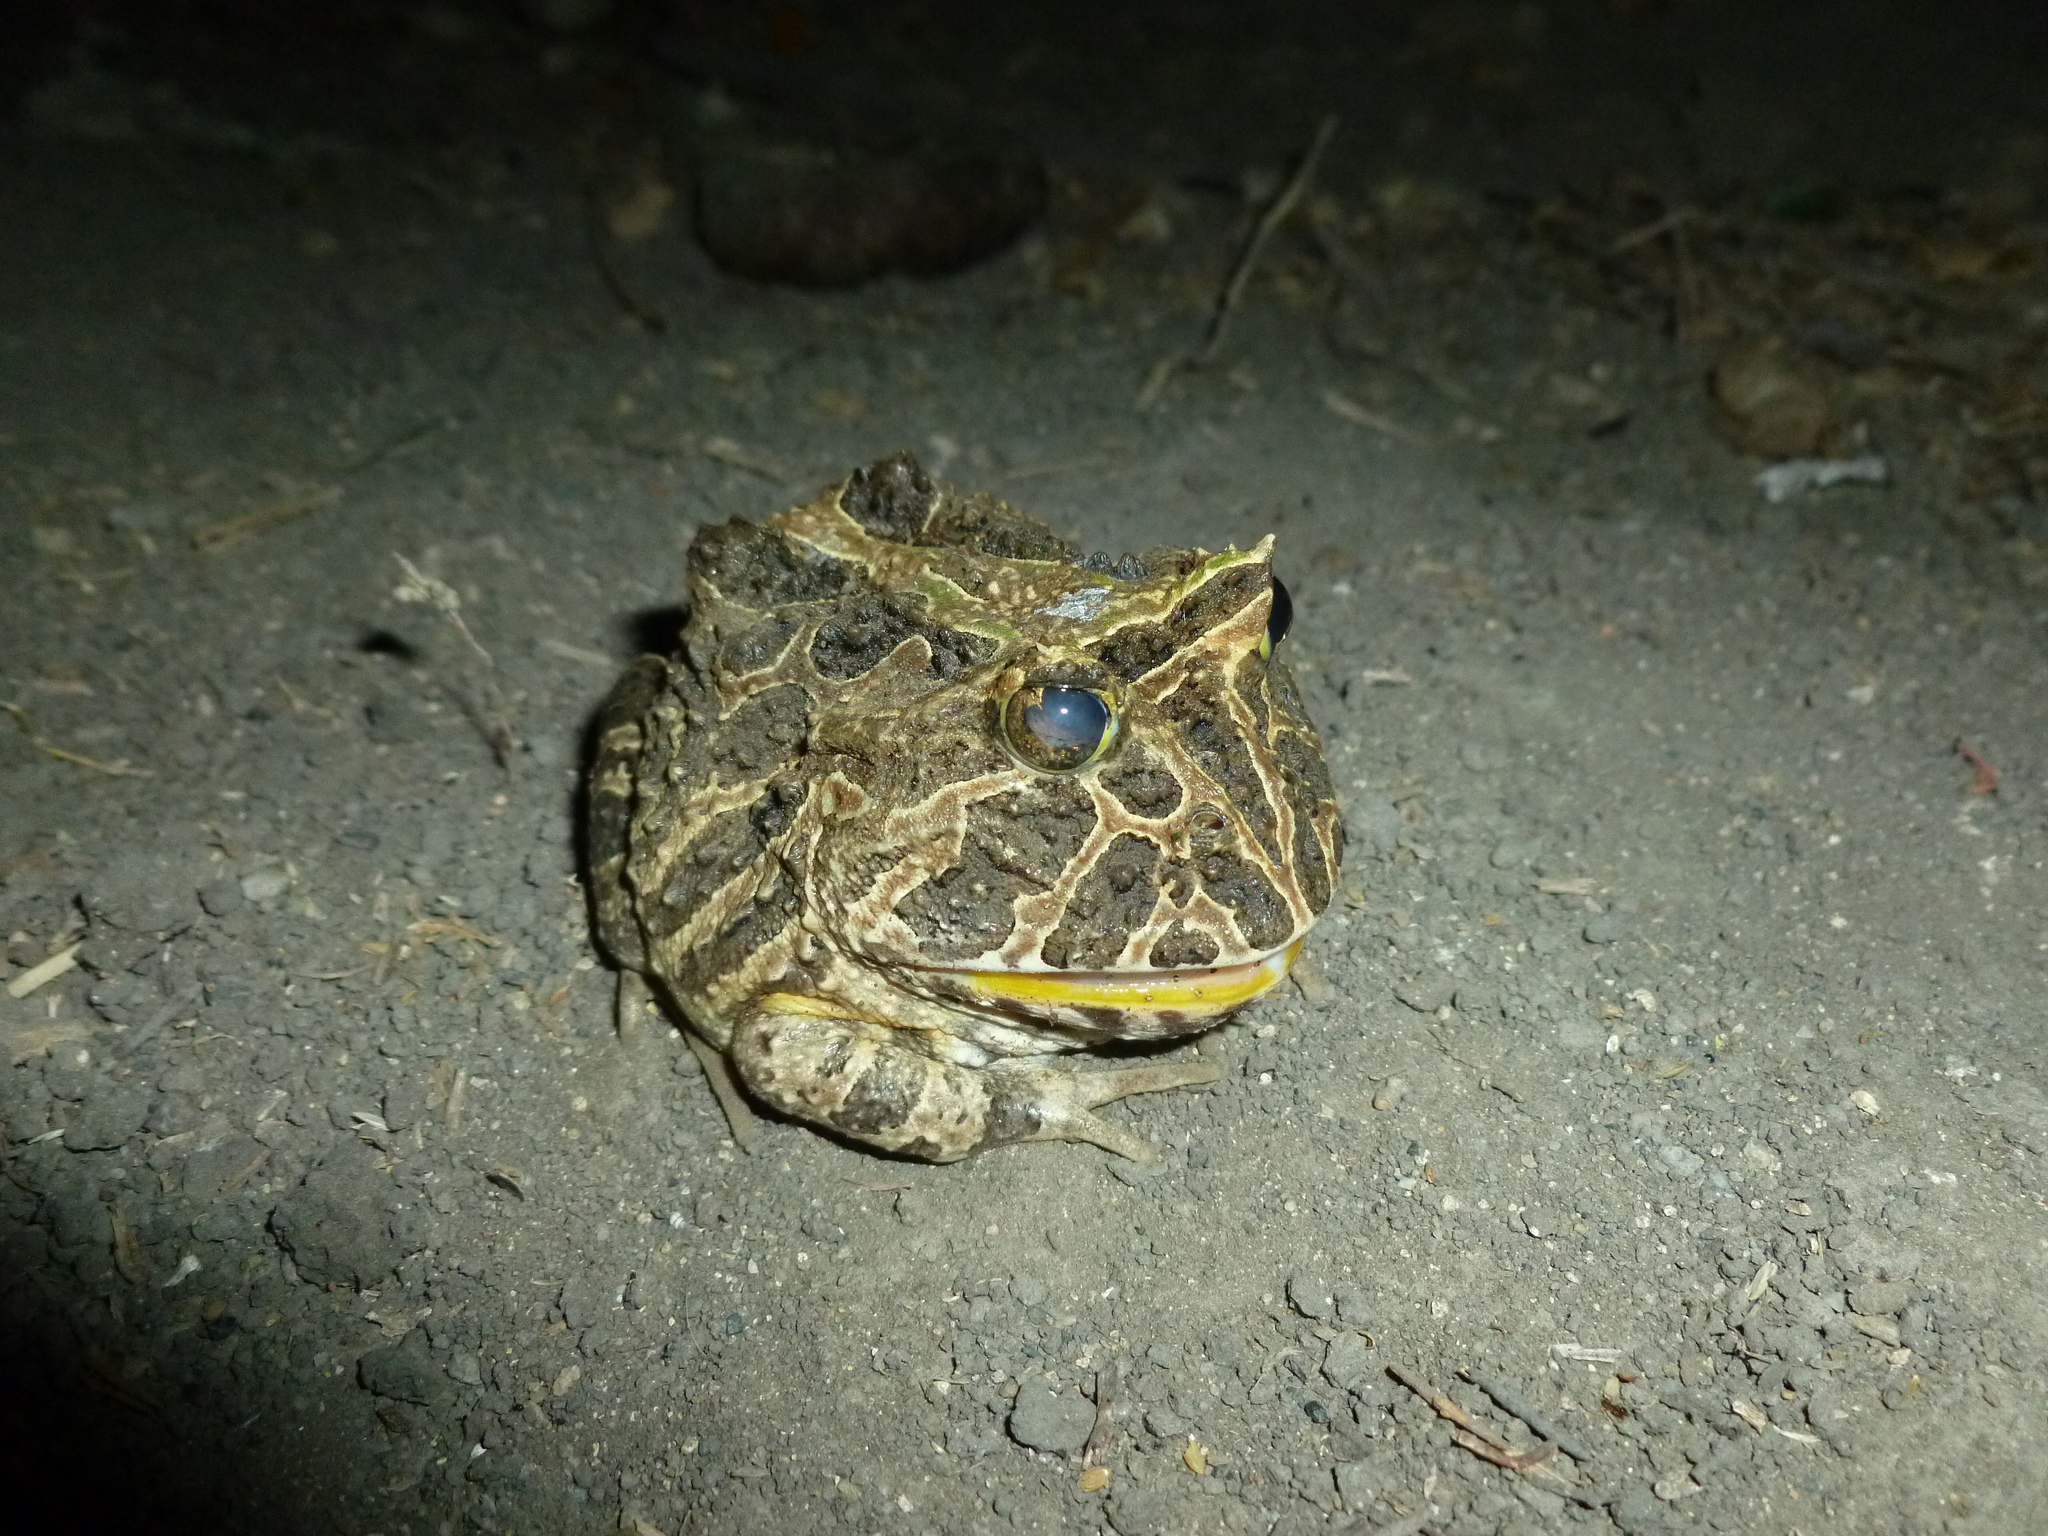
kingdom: Animalia
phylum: Chordata
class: Amphibia
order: Anura
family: Ceratophryidae
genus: Ceratophrys
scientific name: Ceratophrys calcarata
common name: Venezuelan horned frog
